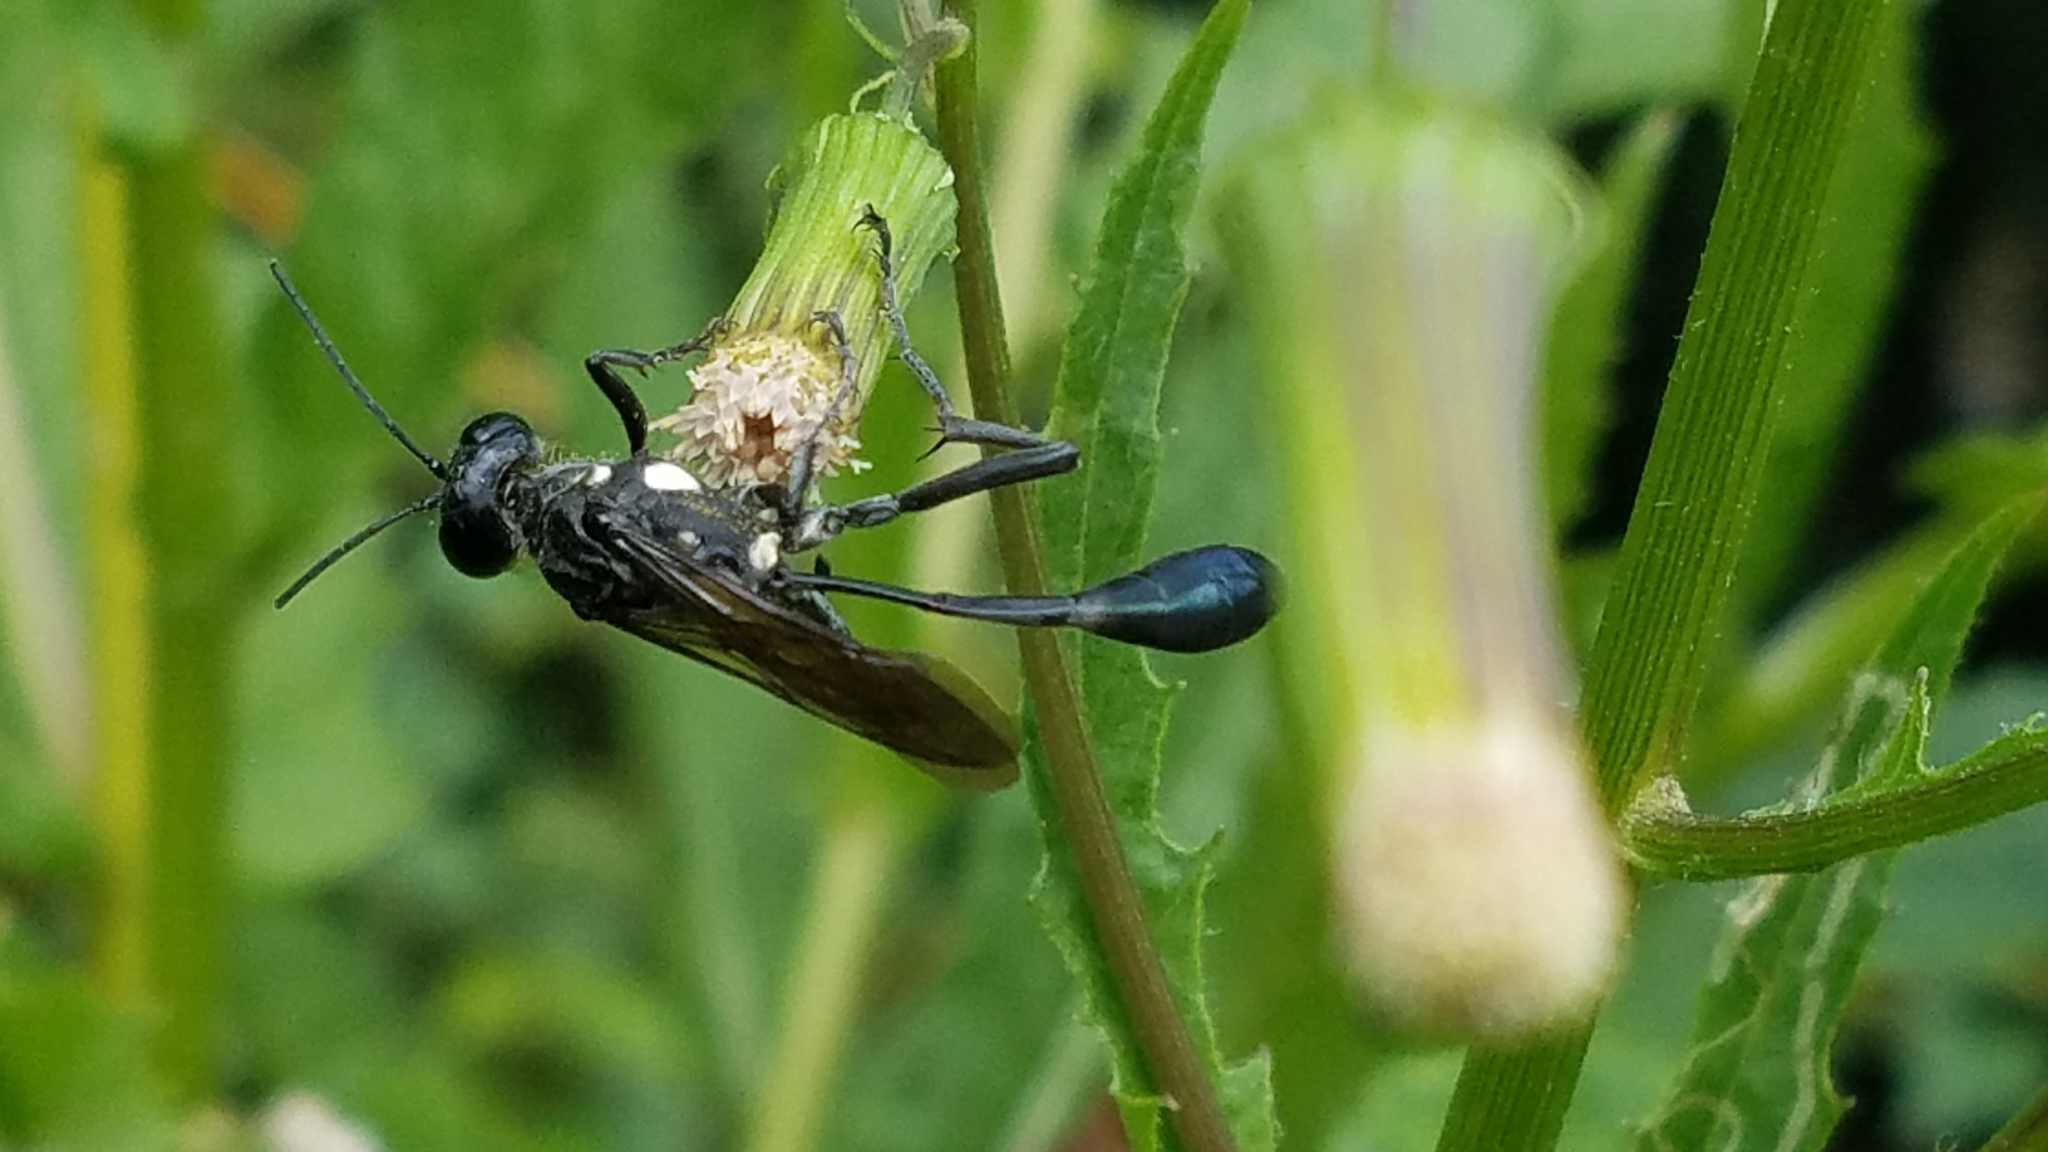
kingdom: Animalia
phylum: Arthropoda
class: Insecta
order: Hymenoptera
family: Sphecidae
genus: Eremnophila
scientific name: Eremnophila aureonotata
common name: Gold-marked thread-waisted wasp
